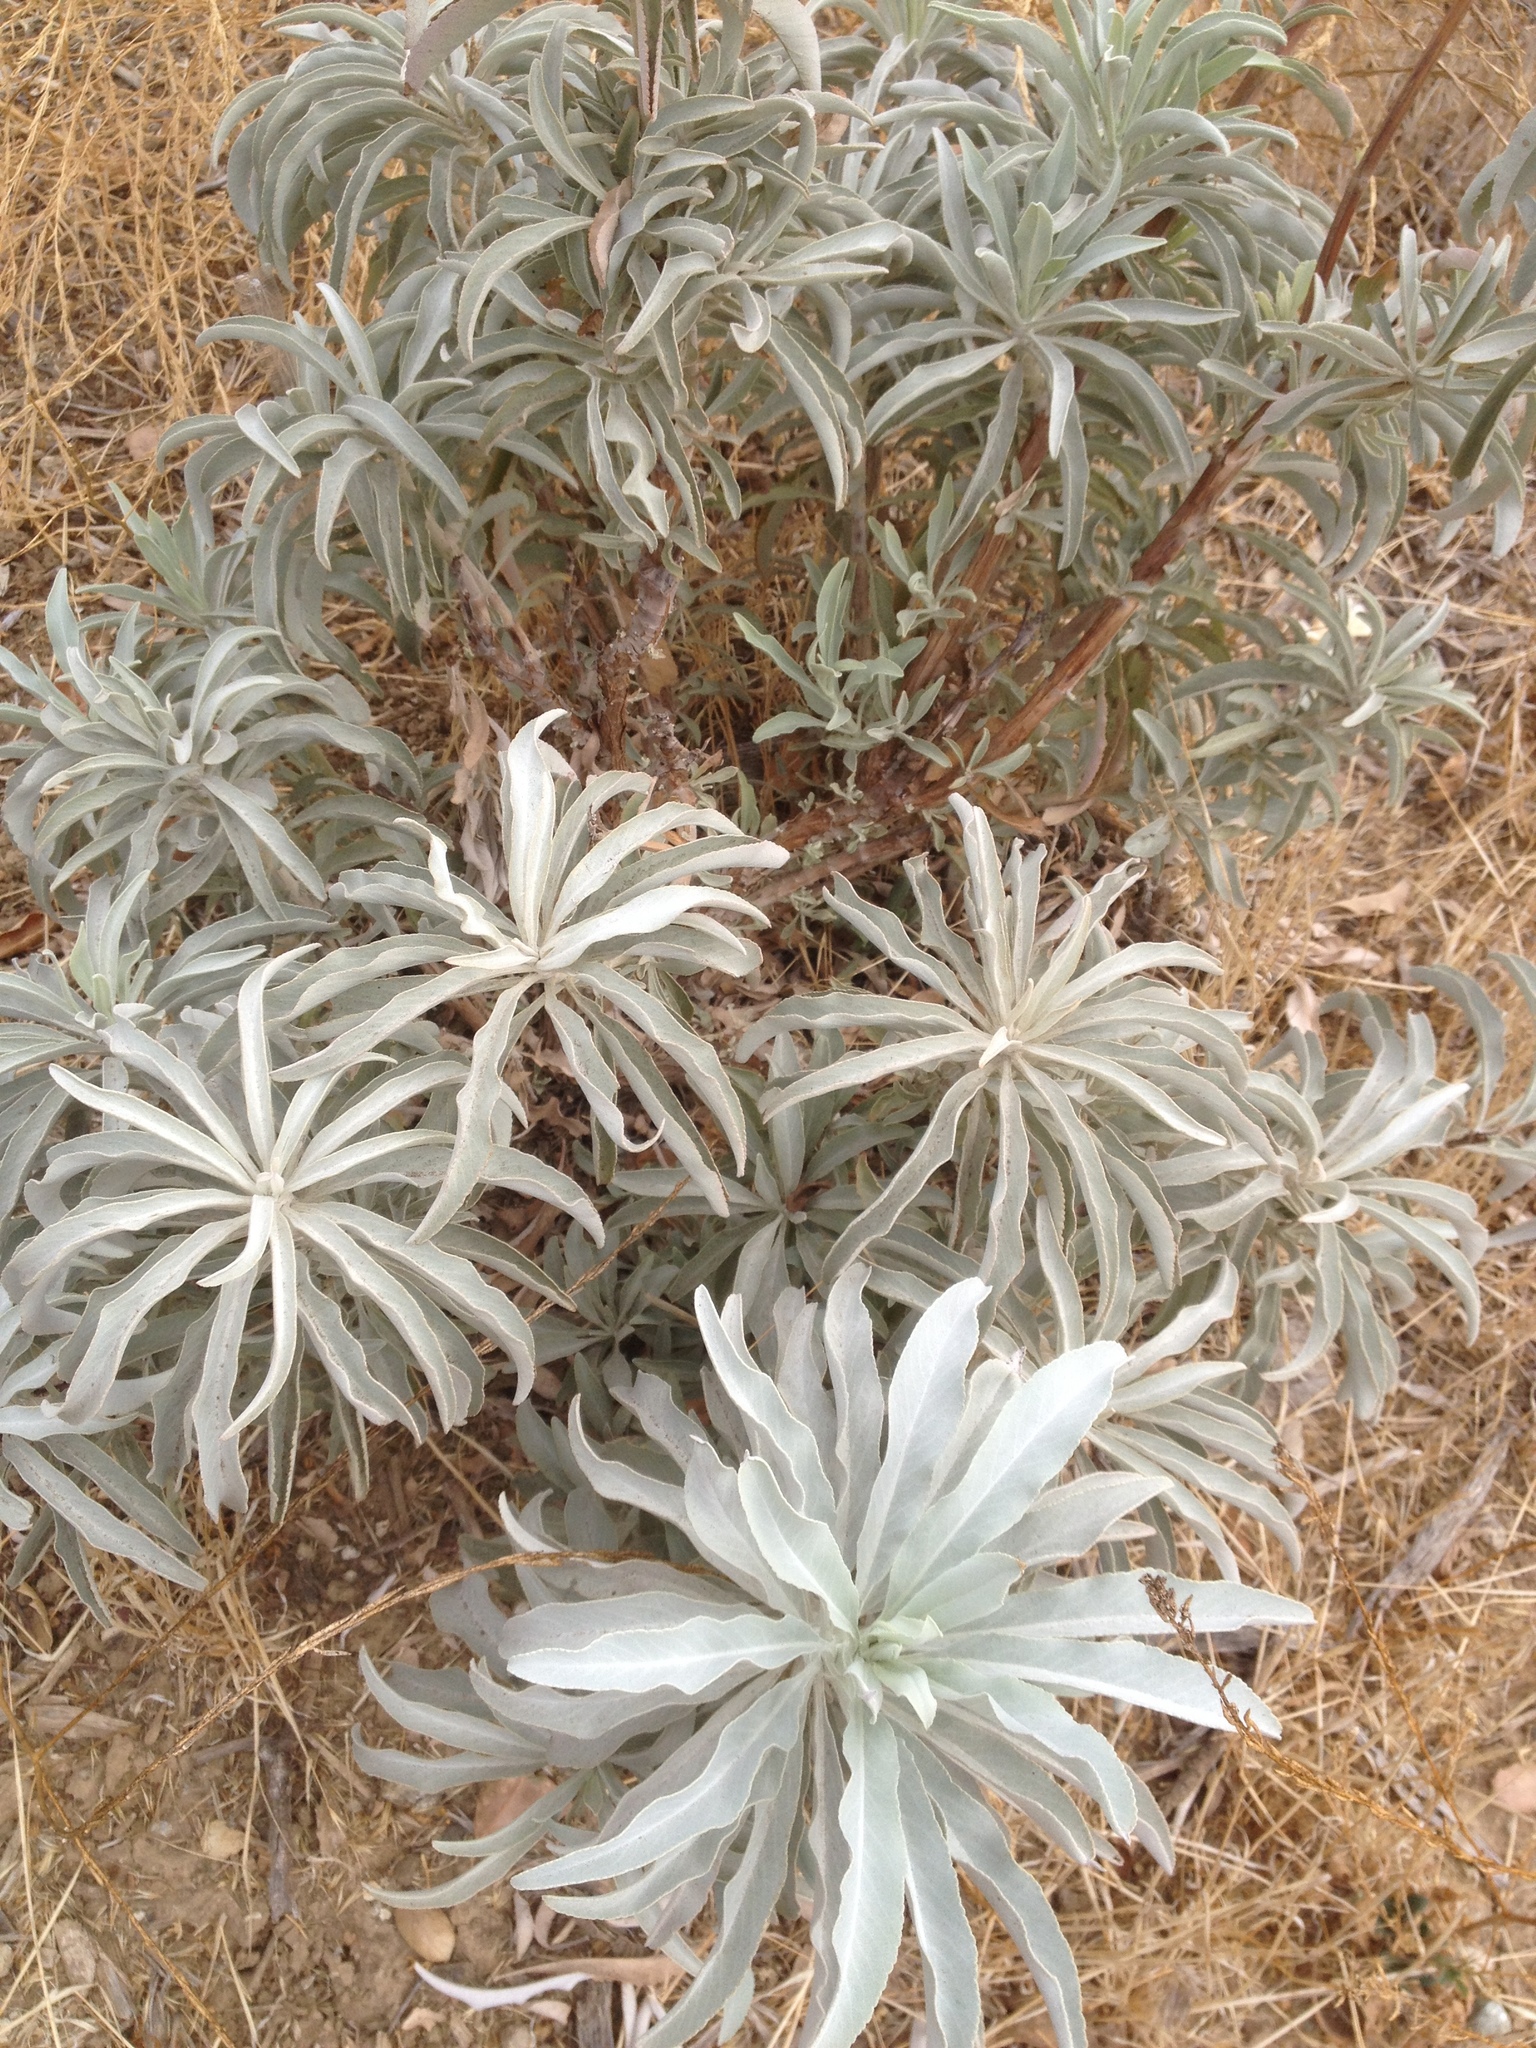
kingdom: Plantae
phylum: Tracheophyta
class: Magnoliopsida
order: Lamiales
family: Lamiaceae
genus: Salvia
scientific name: Salvia apiana
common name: White sage
